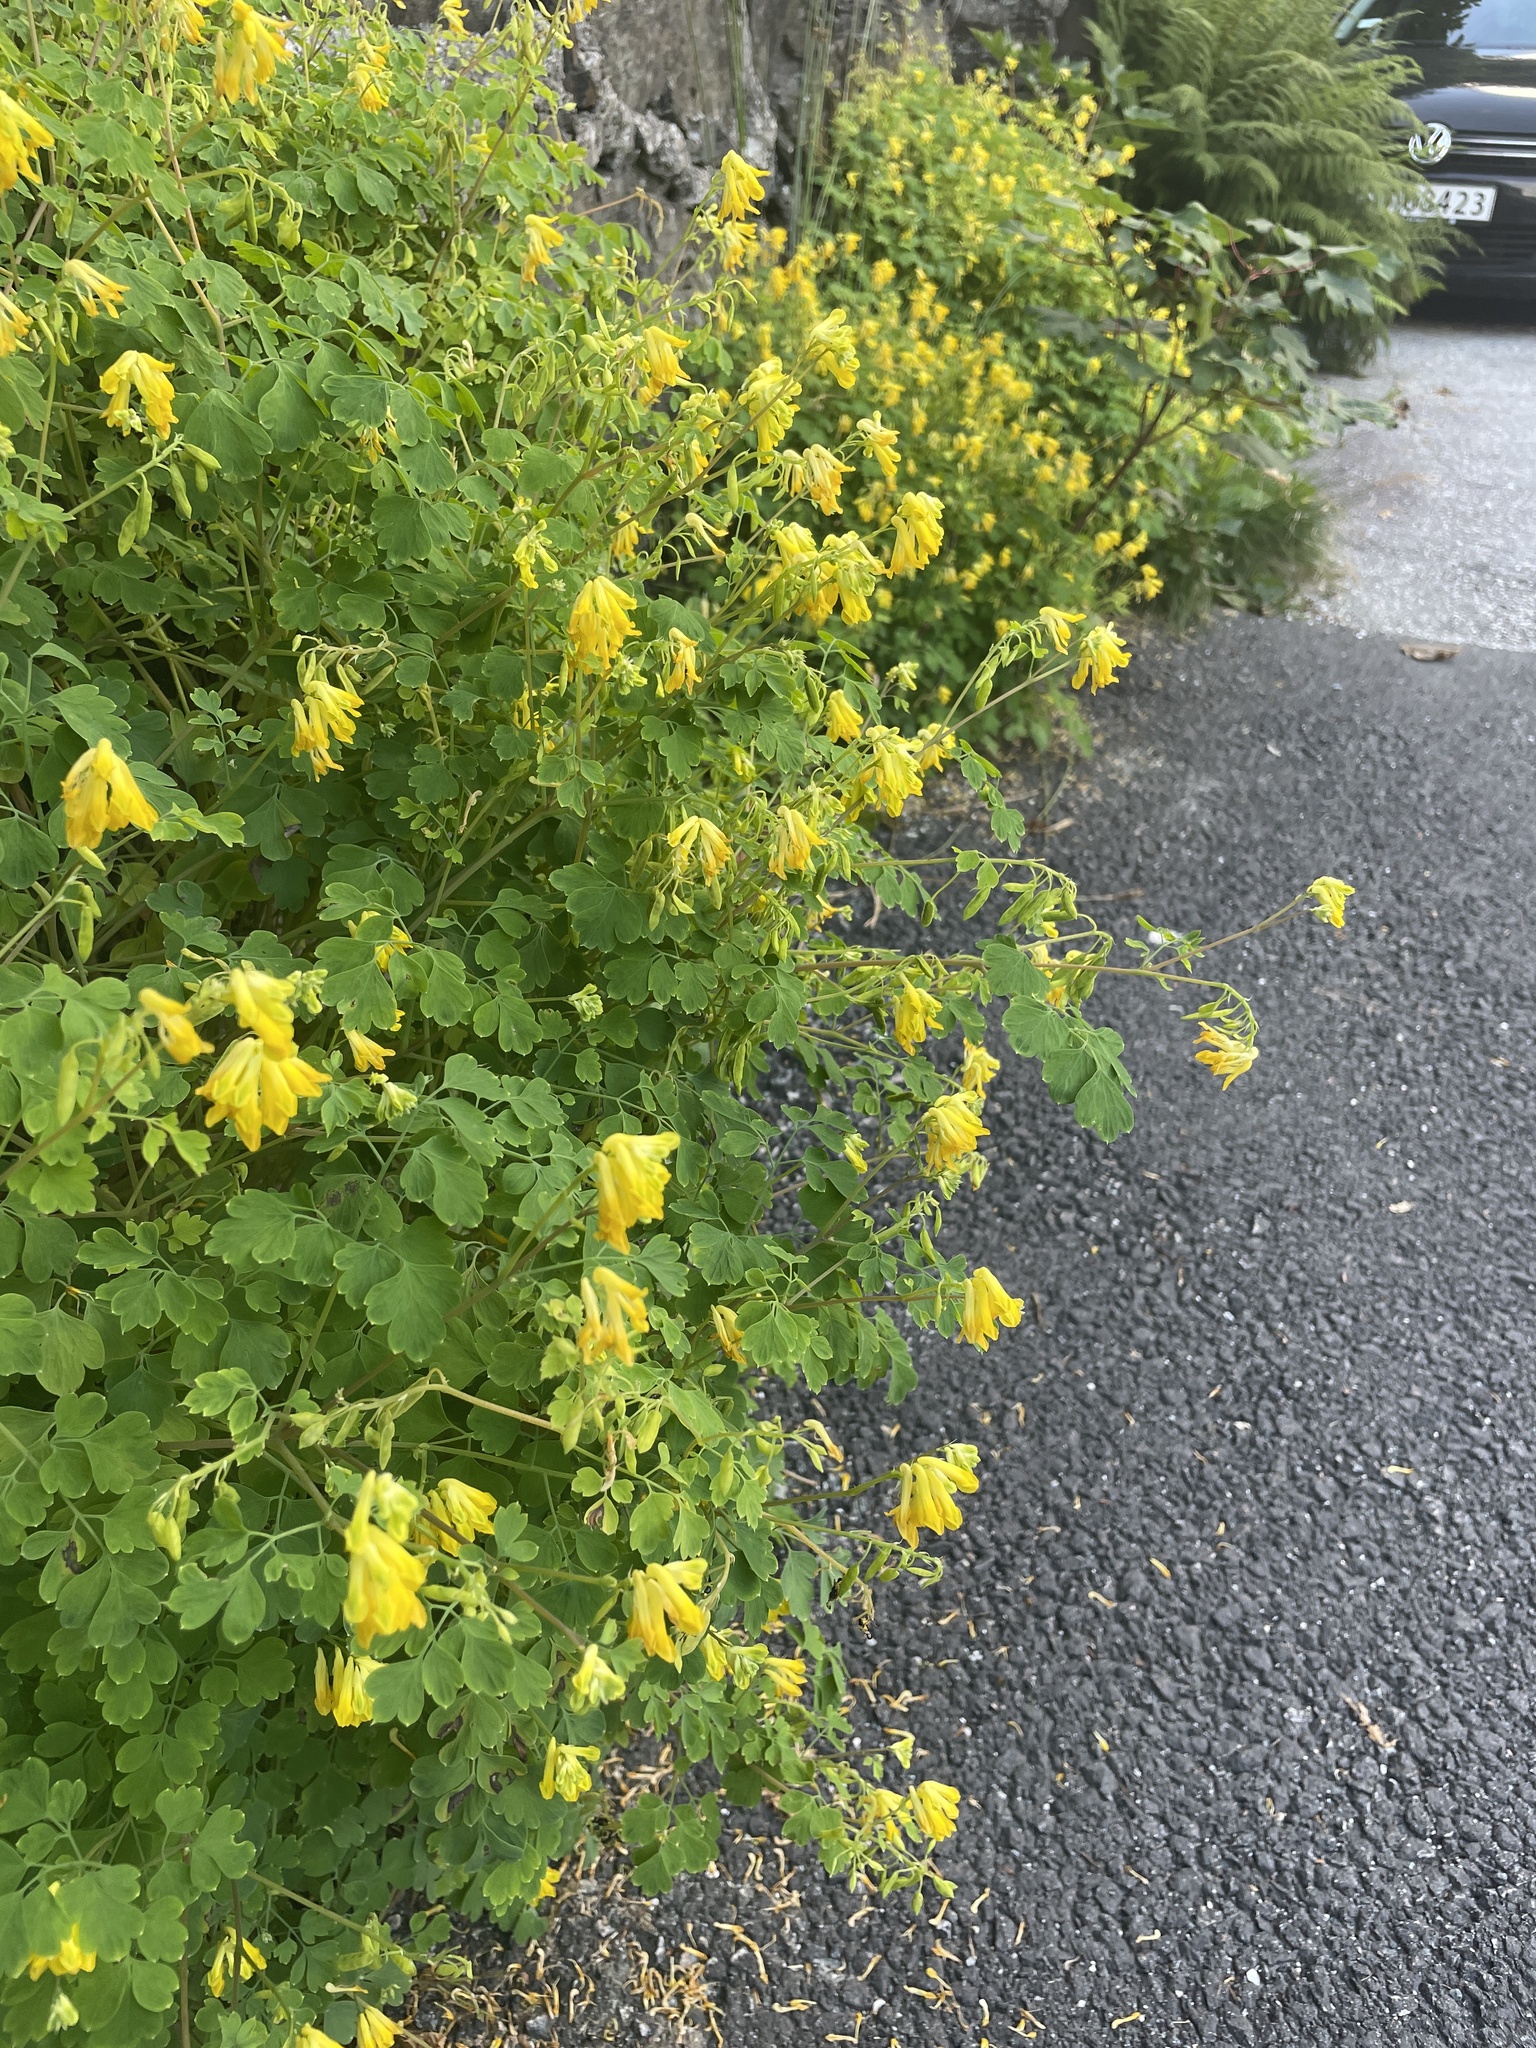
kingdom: Plantae
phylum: Tracheophyta
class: Magnoliopsida
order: Ranunculales
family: Papaveraceae
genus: Pseudofumaria
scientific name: Pseudofumaria lutea
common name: Yellow corydalis
